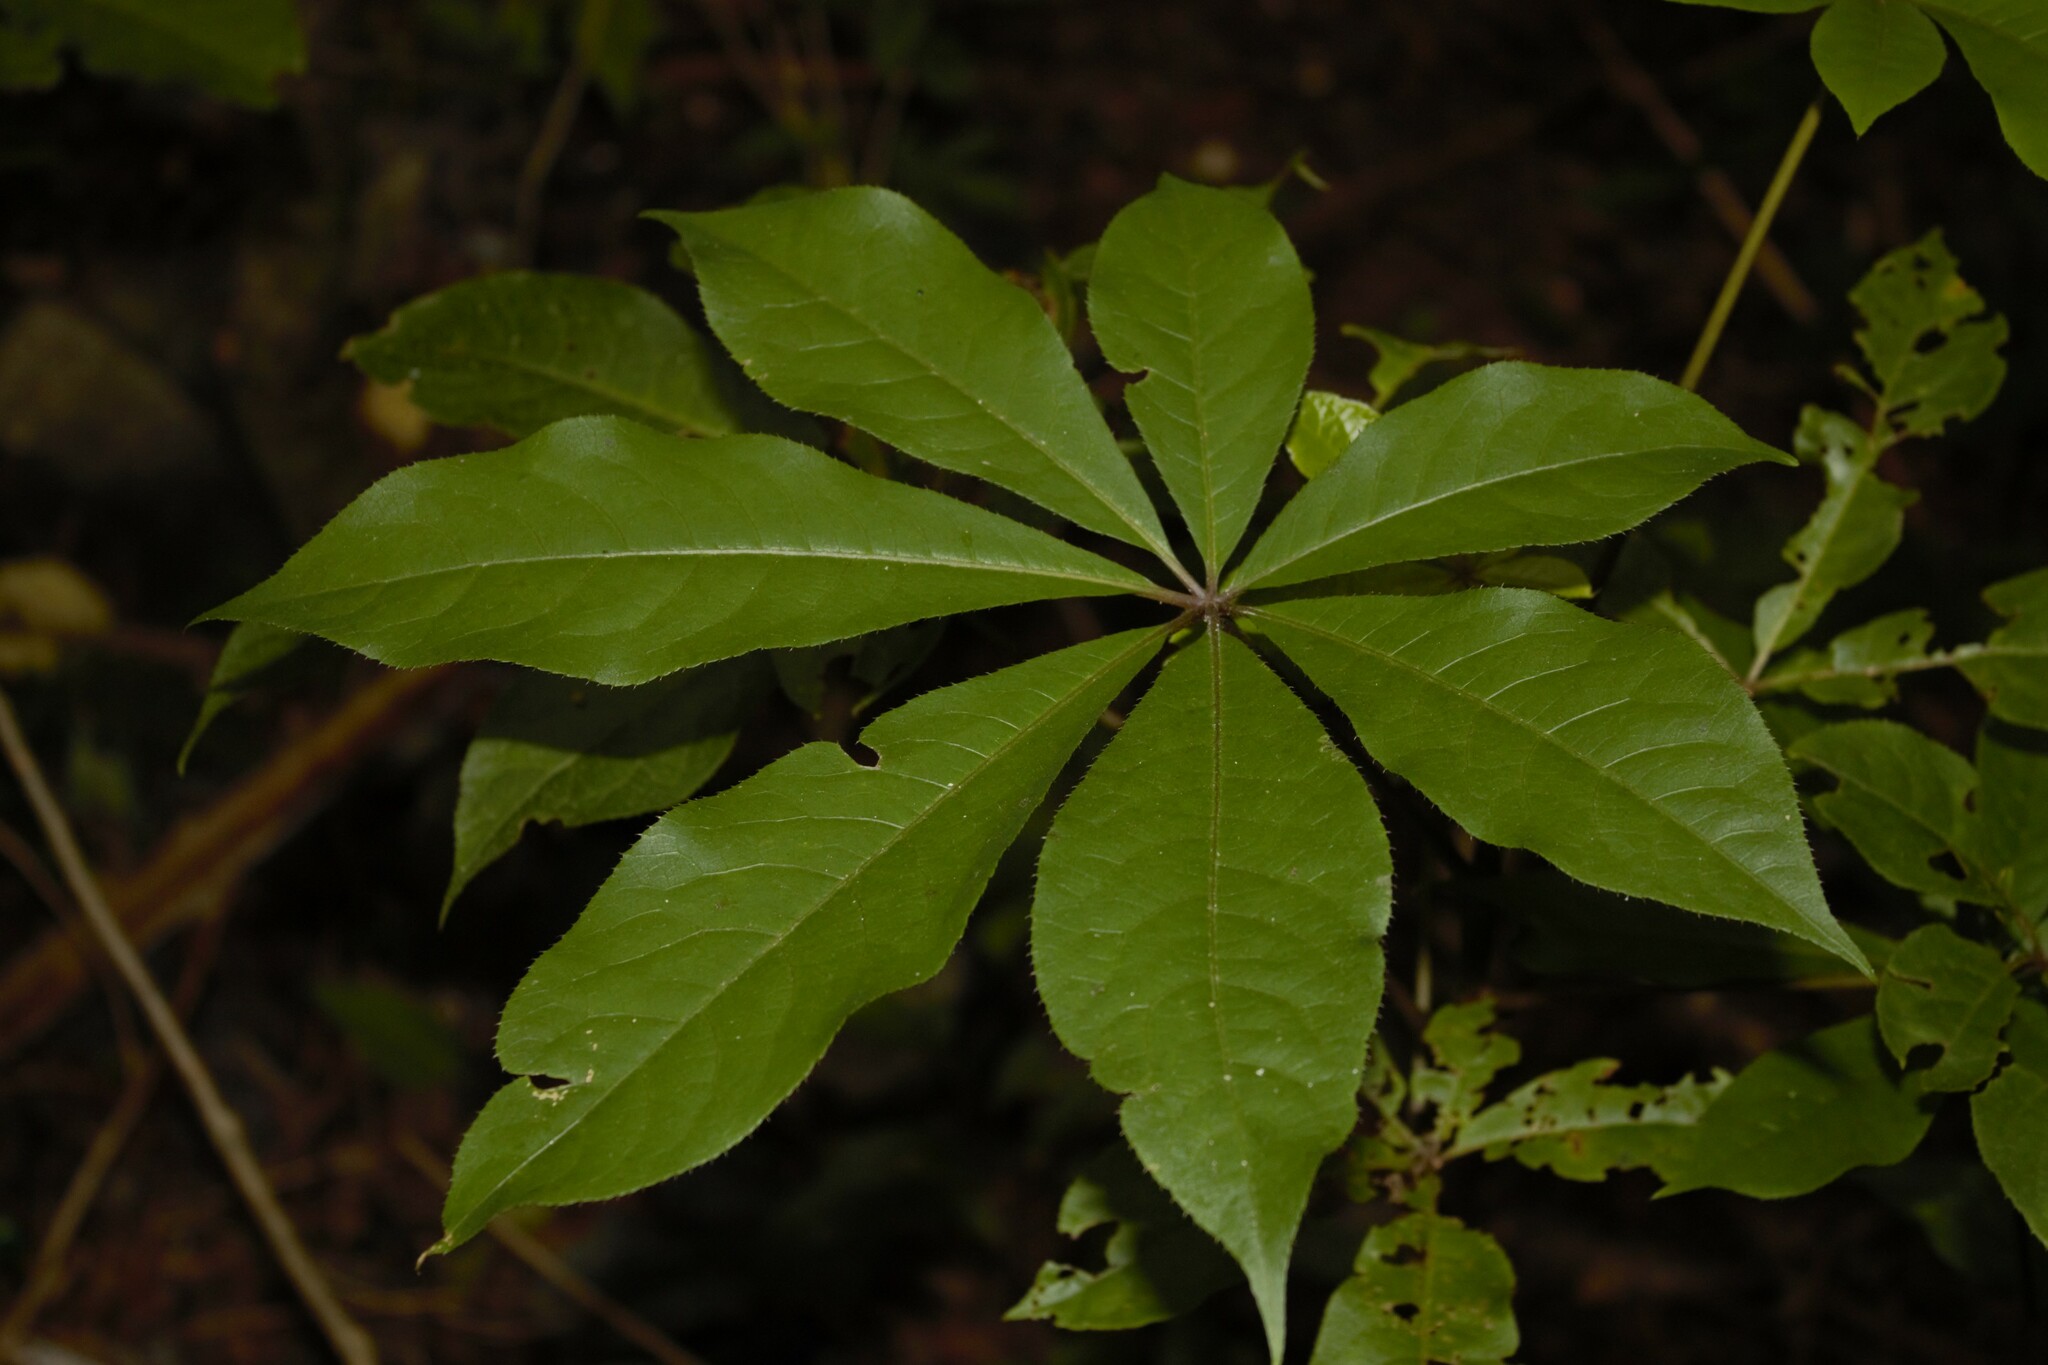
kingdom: Plantae
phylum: Tracheophyta
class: Magnoliopsida
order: Apiales
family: Araliaceae
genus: Schefflera
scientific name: Schefflera digitata
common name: Pate
